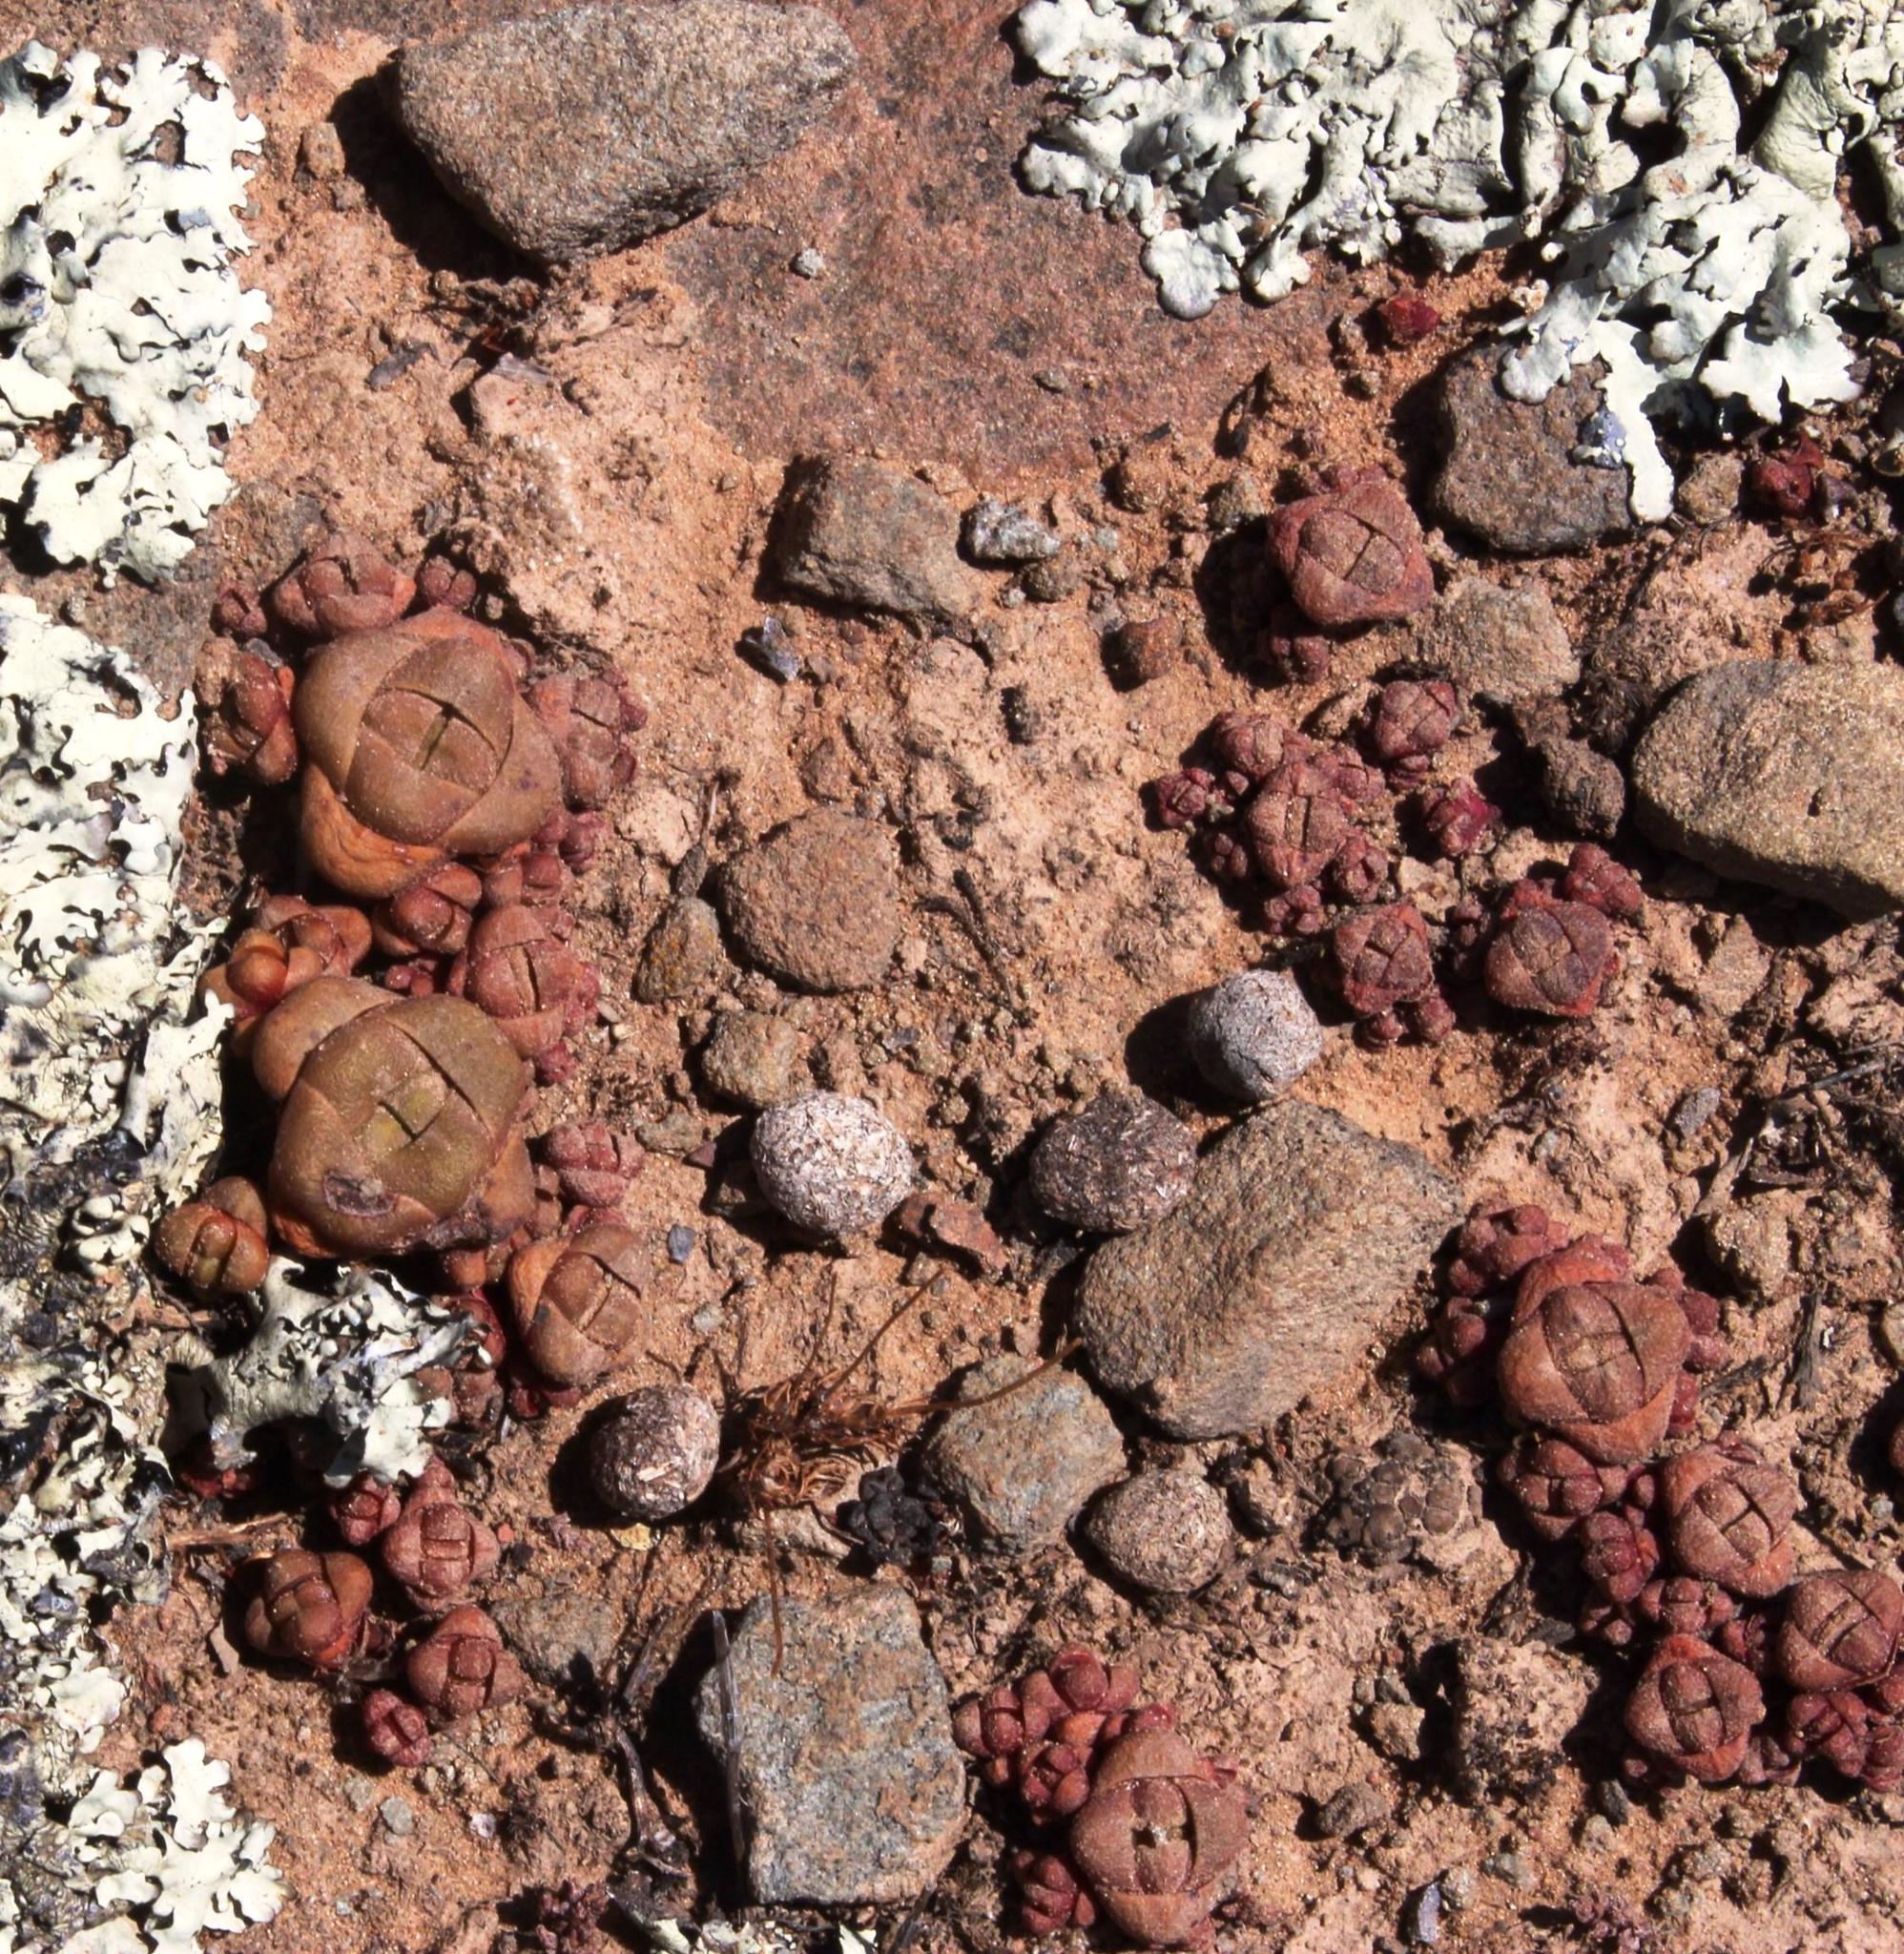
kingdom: Plantae
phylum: Tracheophyta
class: Magnoliopsida
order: Saxifragales
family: Crassulaceae
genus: Crassula
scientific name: Crassula columnaris
